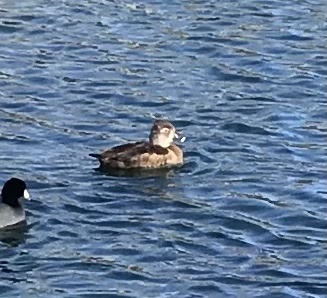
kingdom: Animalia
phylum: Chordata
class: Aves
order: Anseriformes
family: Anatidae
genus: Aythya
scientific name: Aythya collaris
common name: Ring-necked duck
